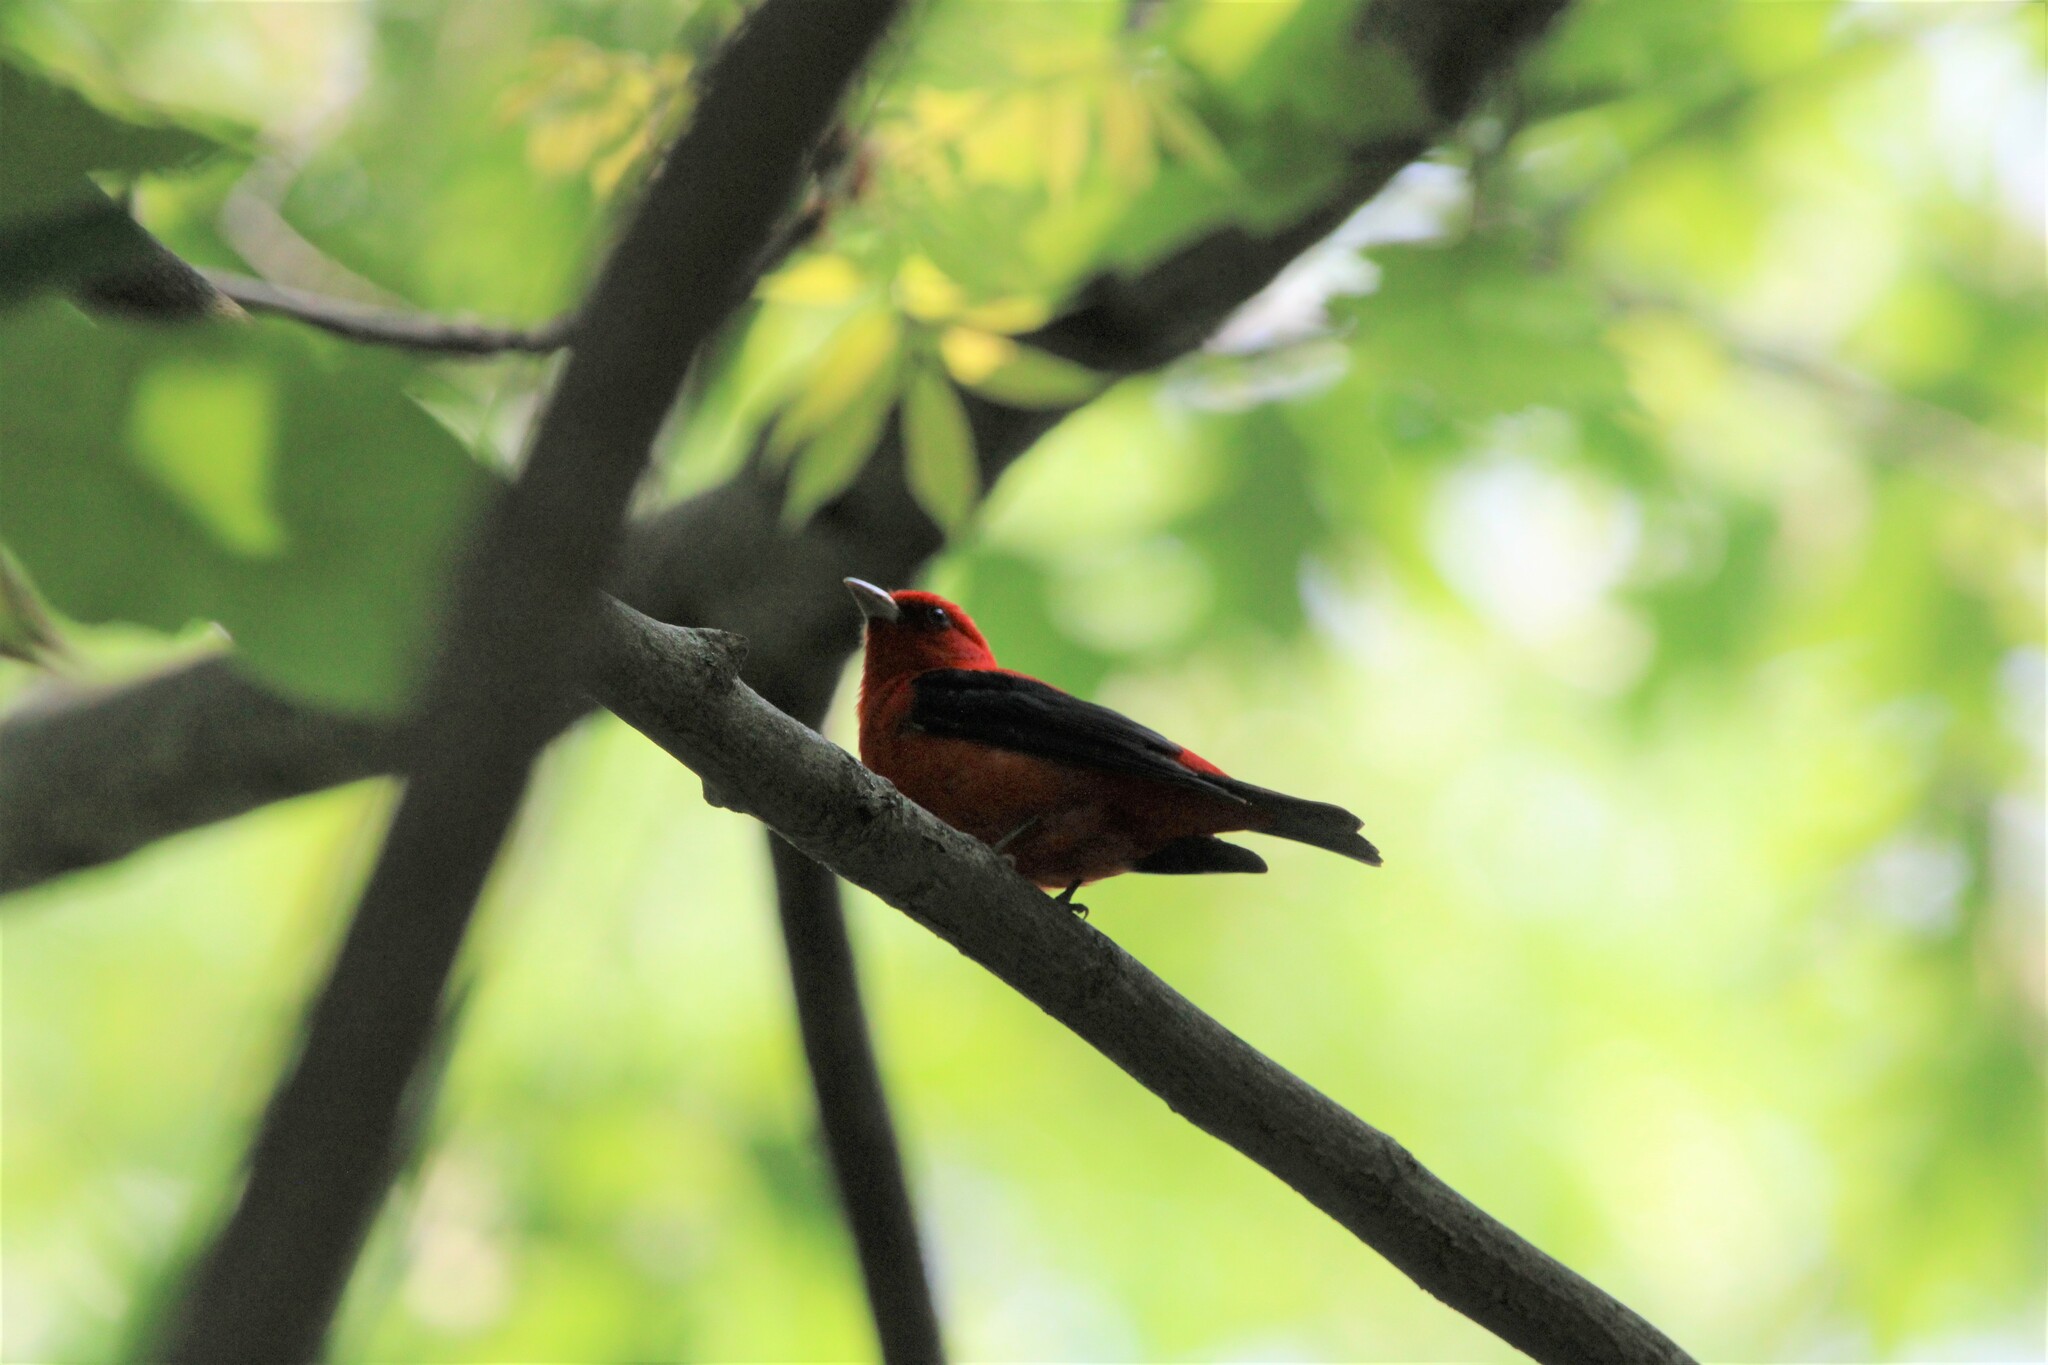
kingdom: Animalia
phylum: Chordata
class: Aves
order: Passeriformes
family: Cardinalidae
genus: Piranga
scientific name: Piranga olivacea
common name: Scarlet tanager
